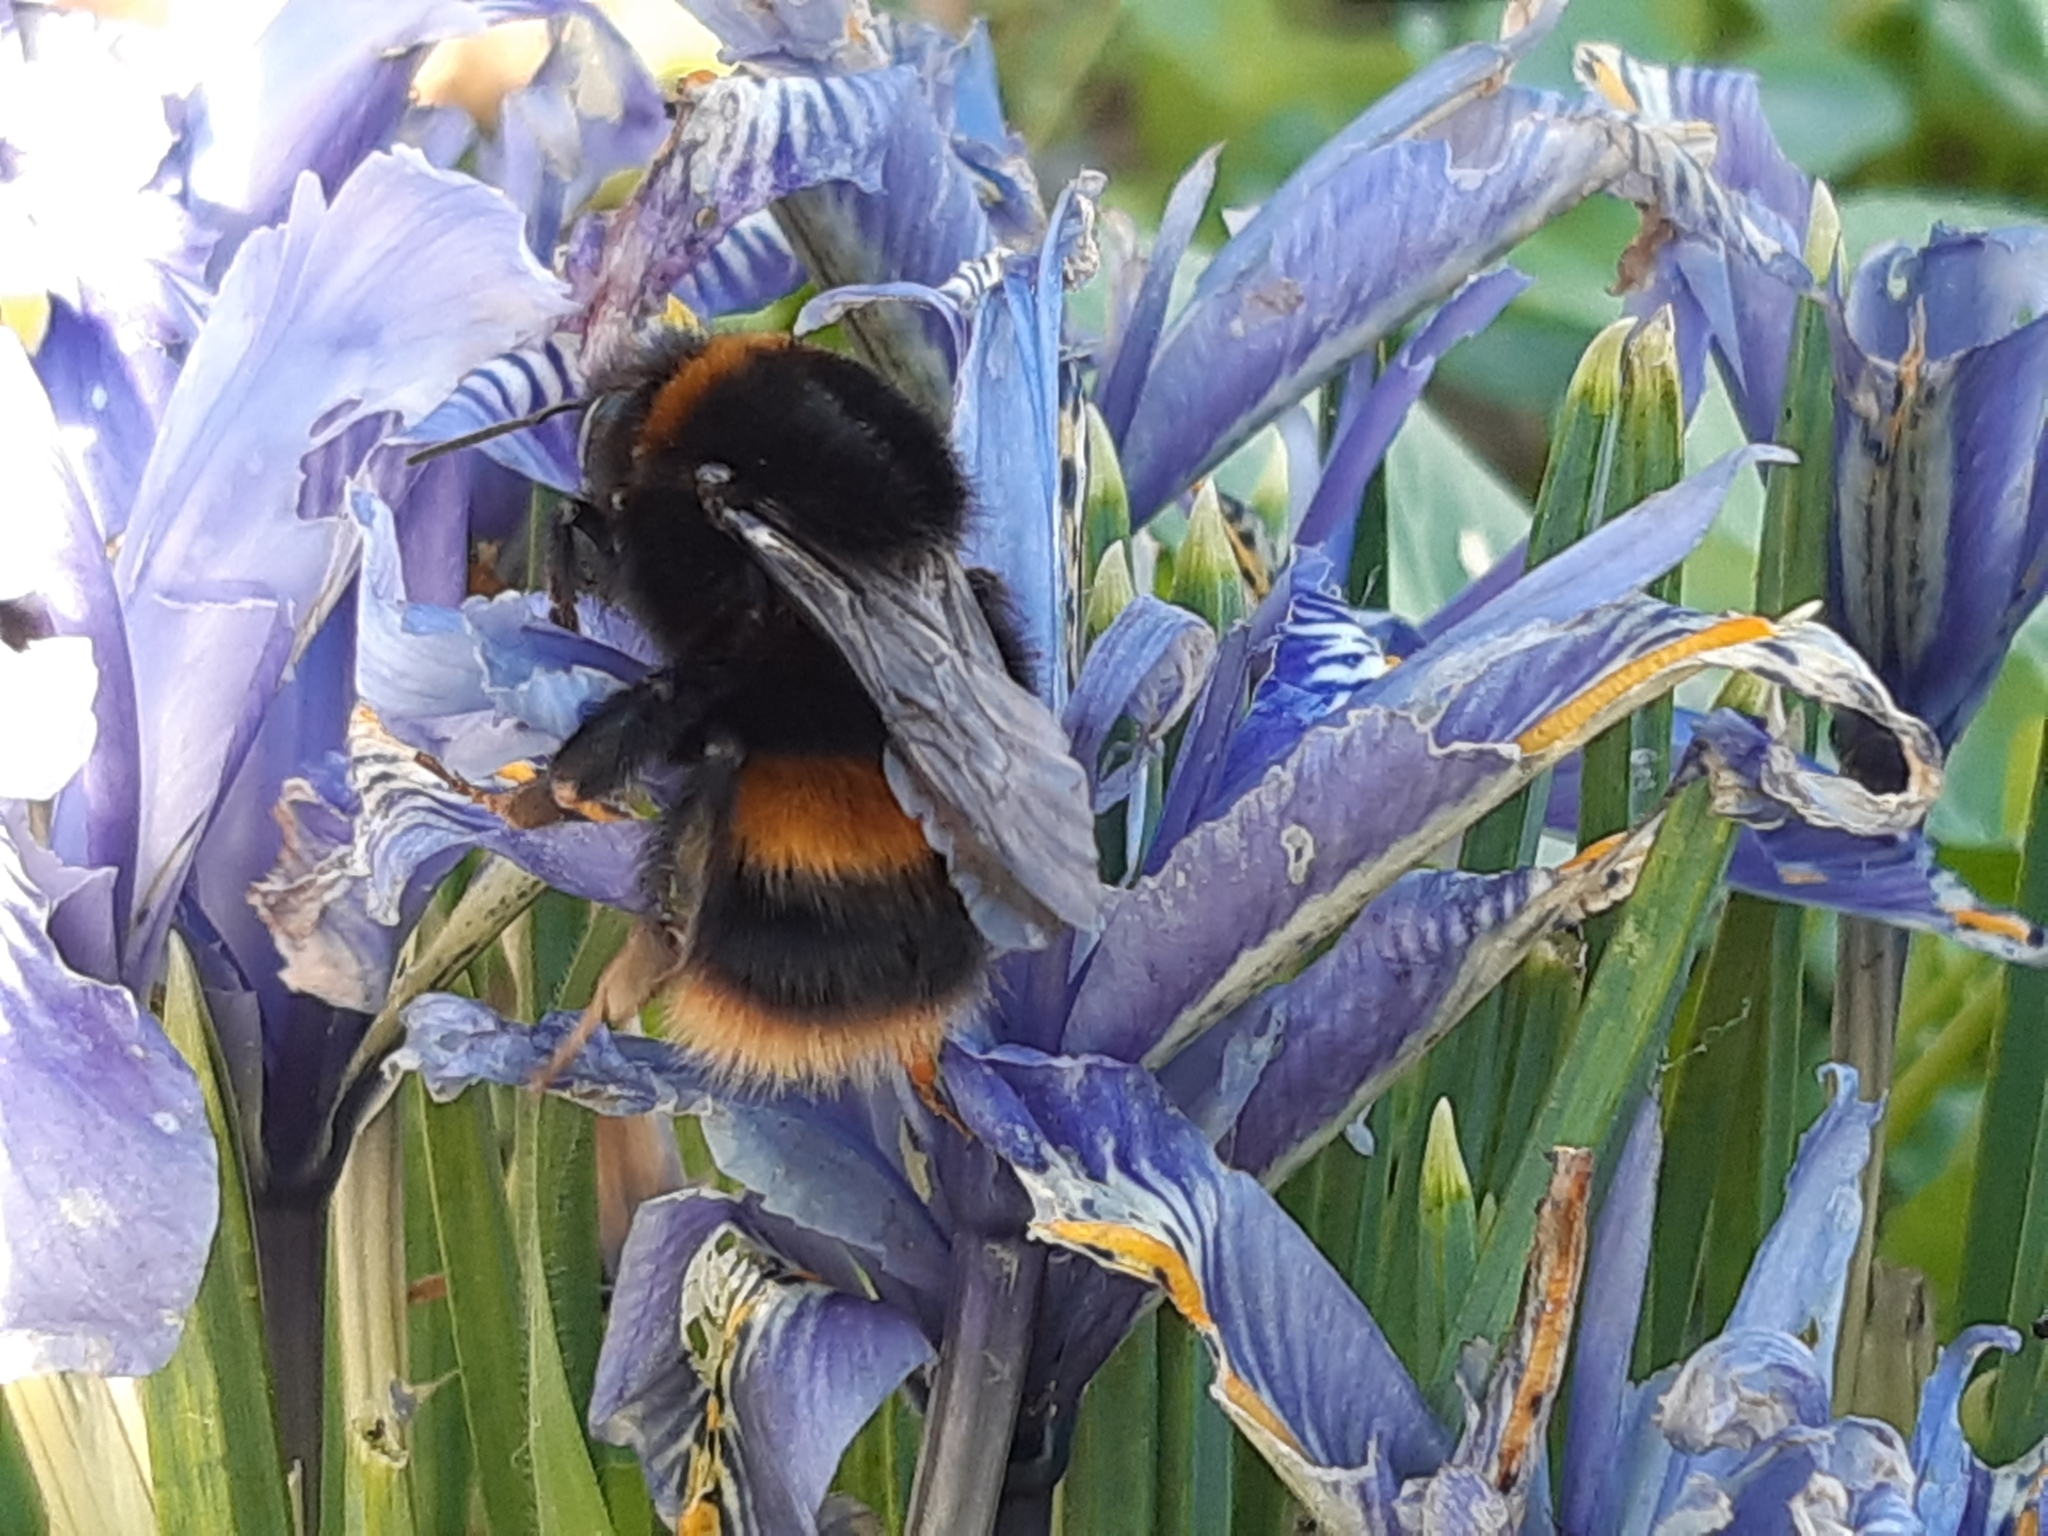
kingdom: Animalia
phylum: Arthropoda
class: Insecta
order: Hymenoptera
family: Apidae
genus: Bombus
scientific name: Bombus terrestris
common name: Buff-tailed bumblebee
